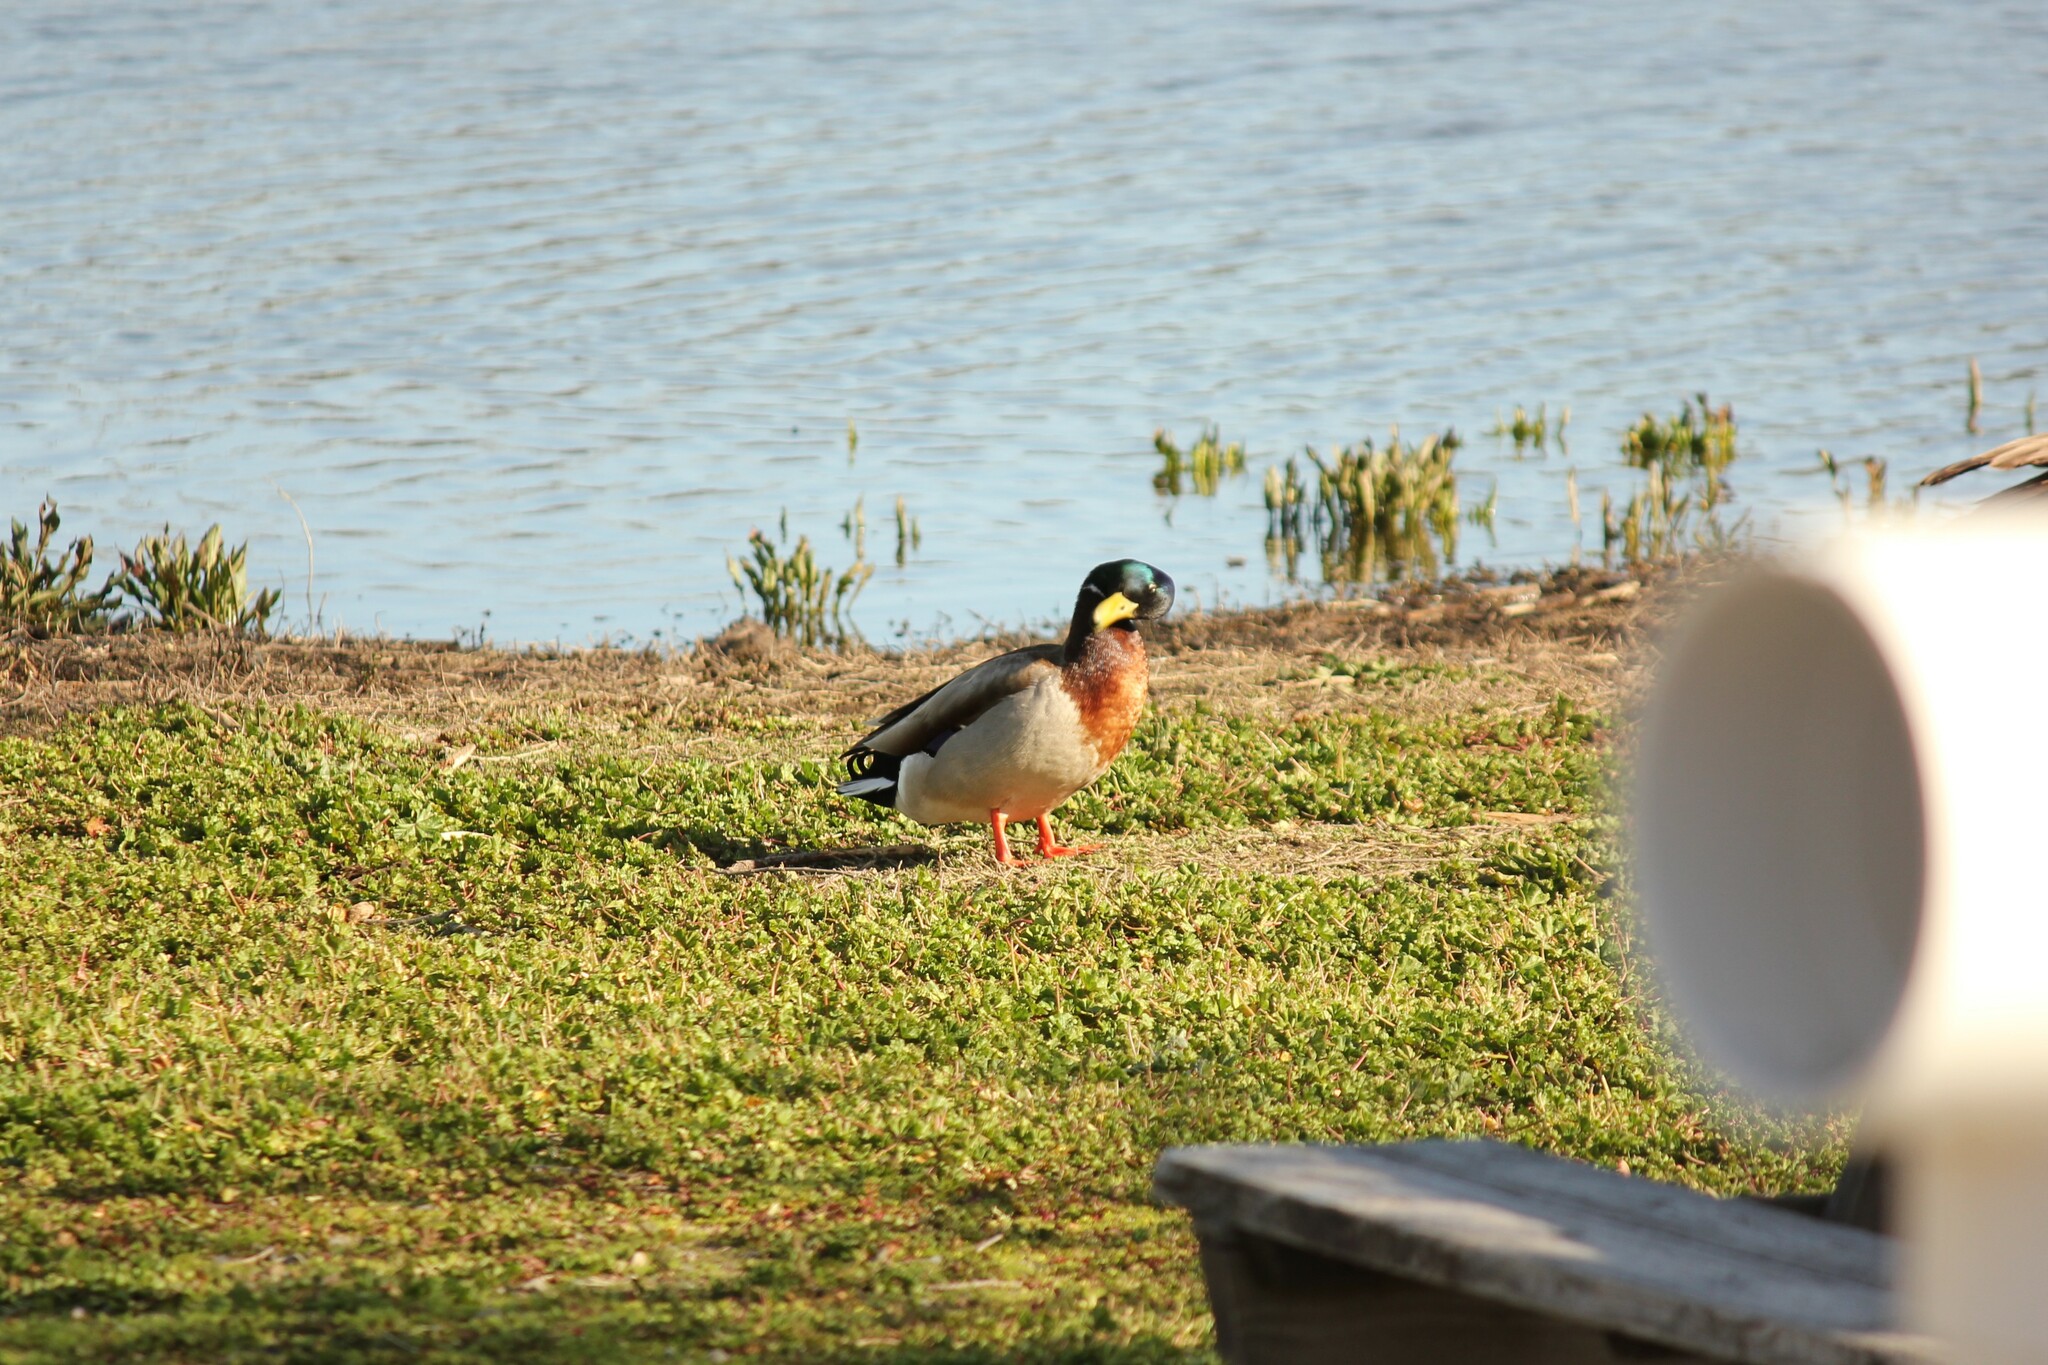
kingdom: Animalia
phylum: Chordata
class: Aves
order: Anseriformes
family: Anatidae
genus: Anas
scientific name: Anas platyrhynchos
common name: Mallard
